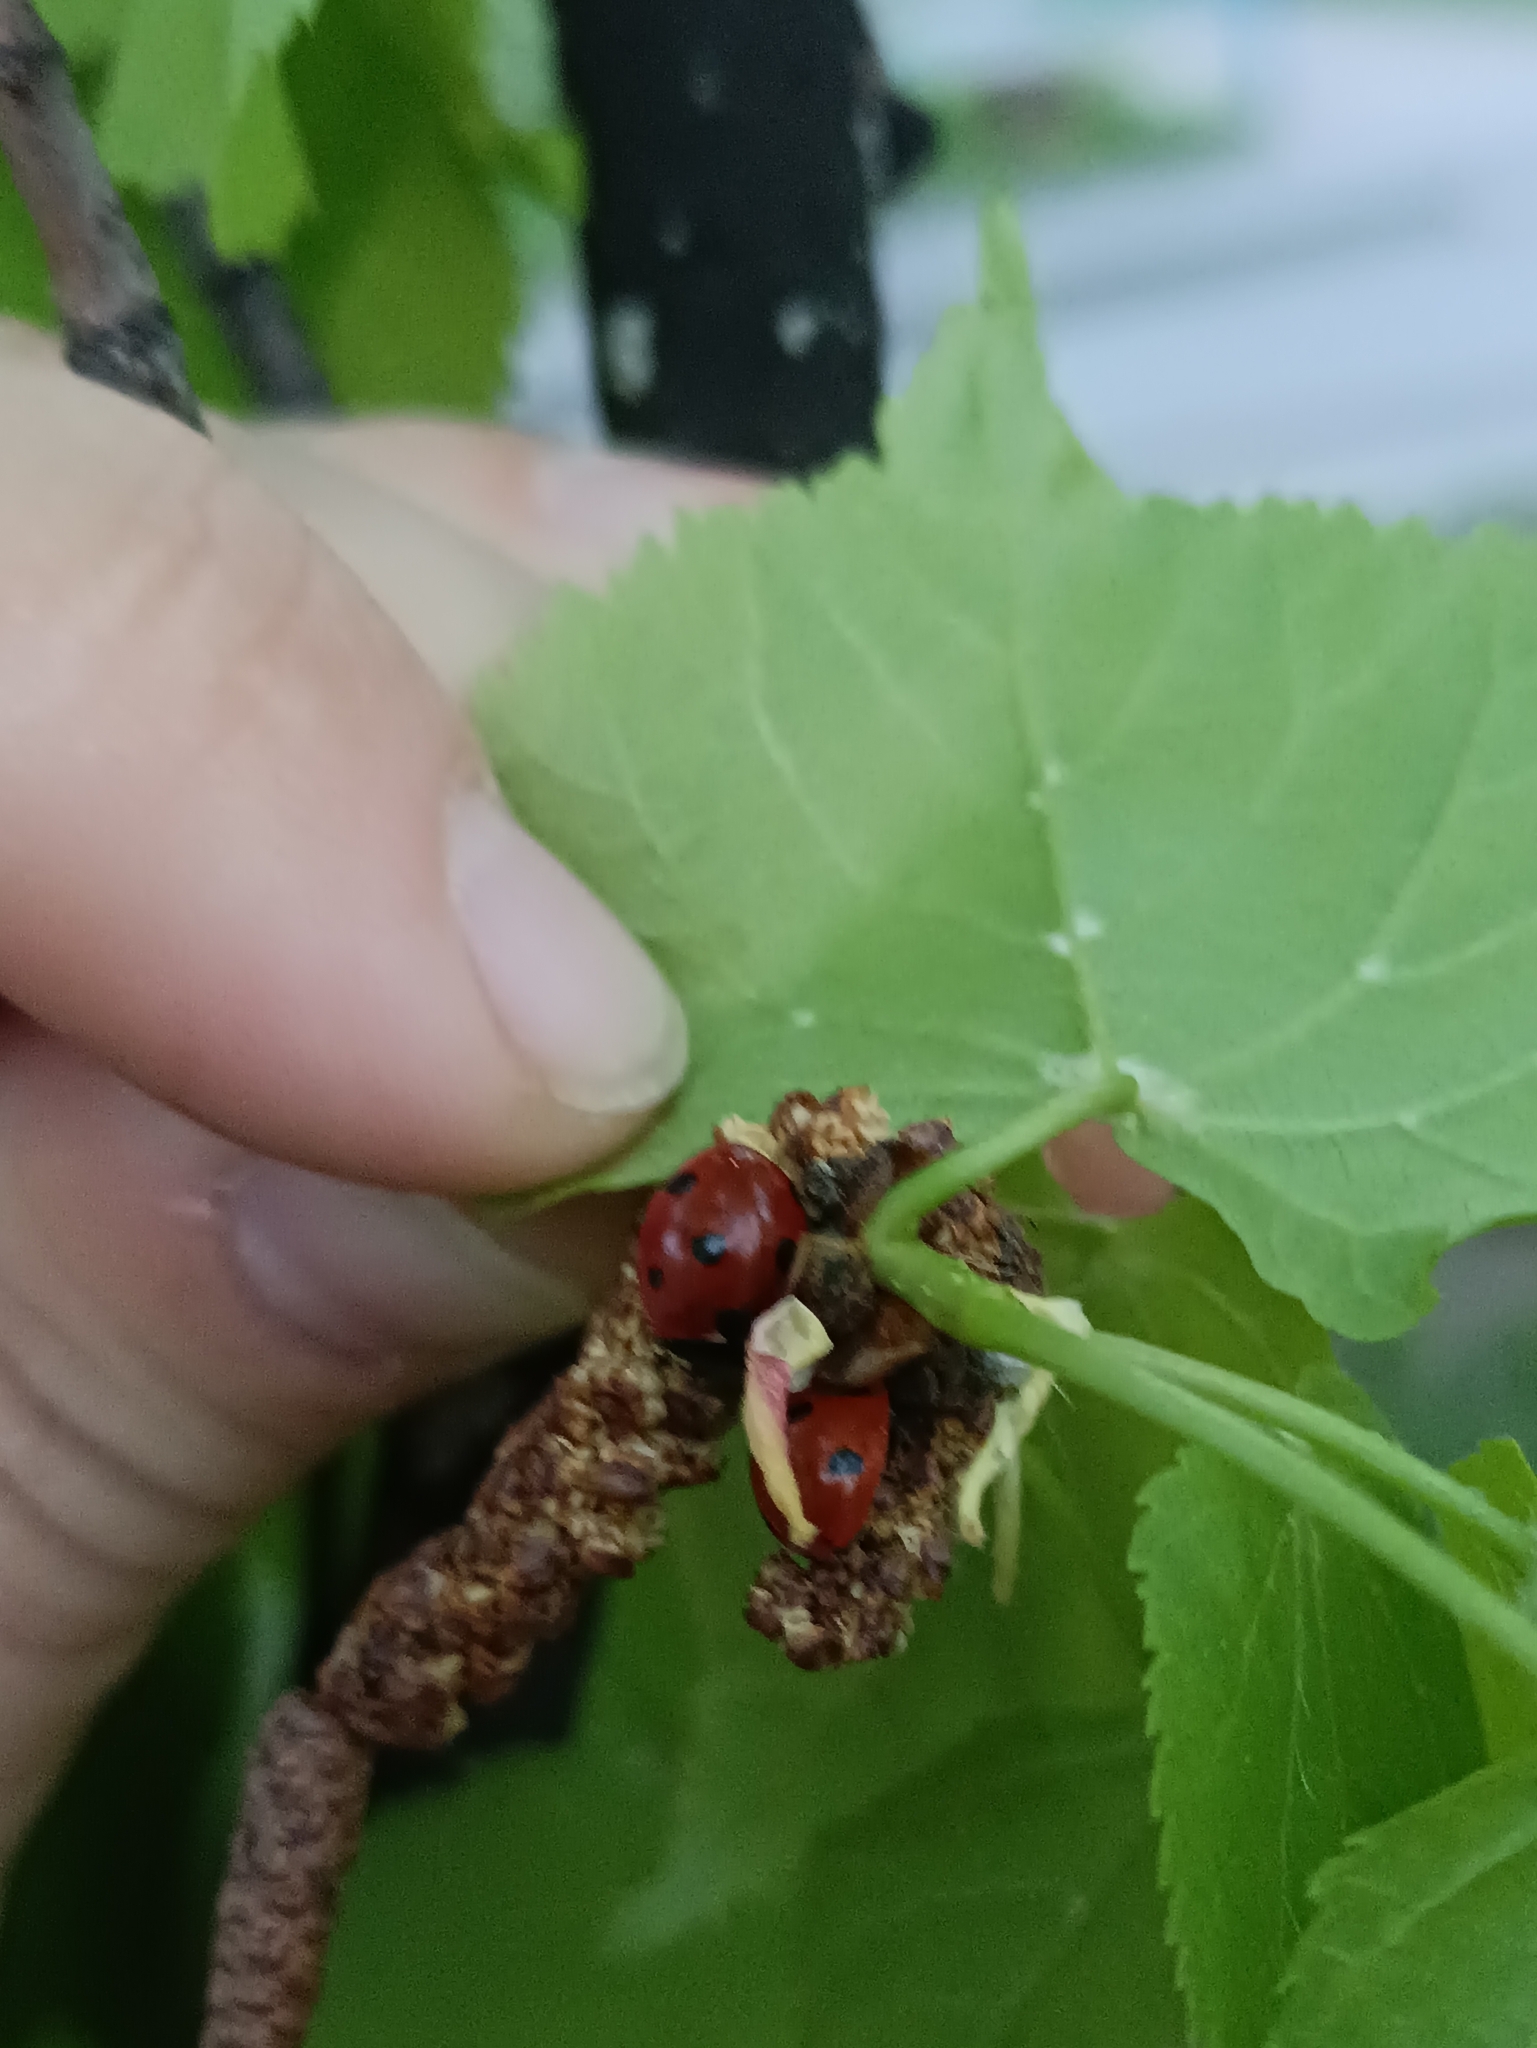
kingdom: Animalia
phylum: Arthropoda
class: Insecta
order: Coleoptera
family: Coccinellidae
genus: Coccinella
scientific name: Coccinella septempunctata
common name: Sevenspotted lady beetle
